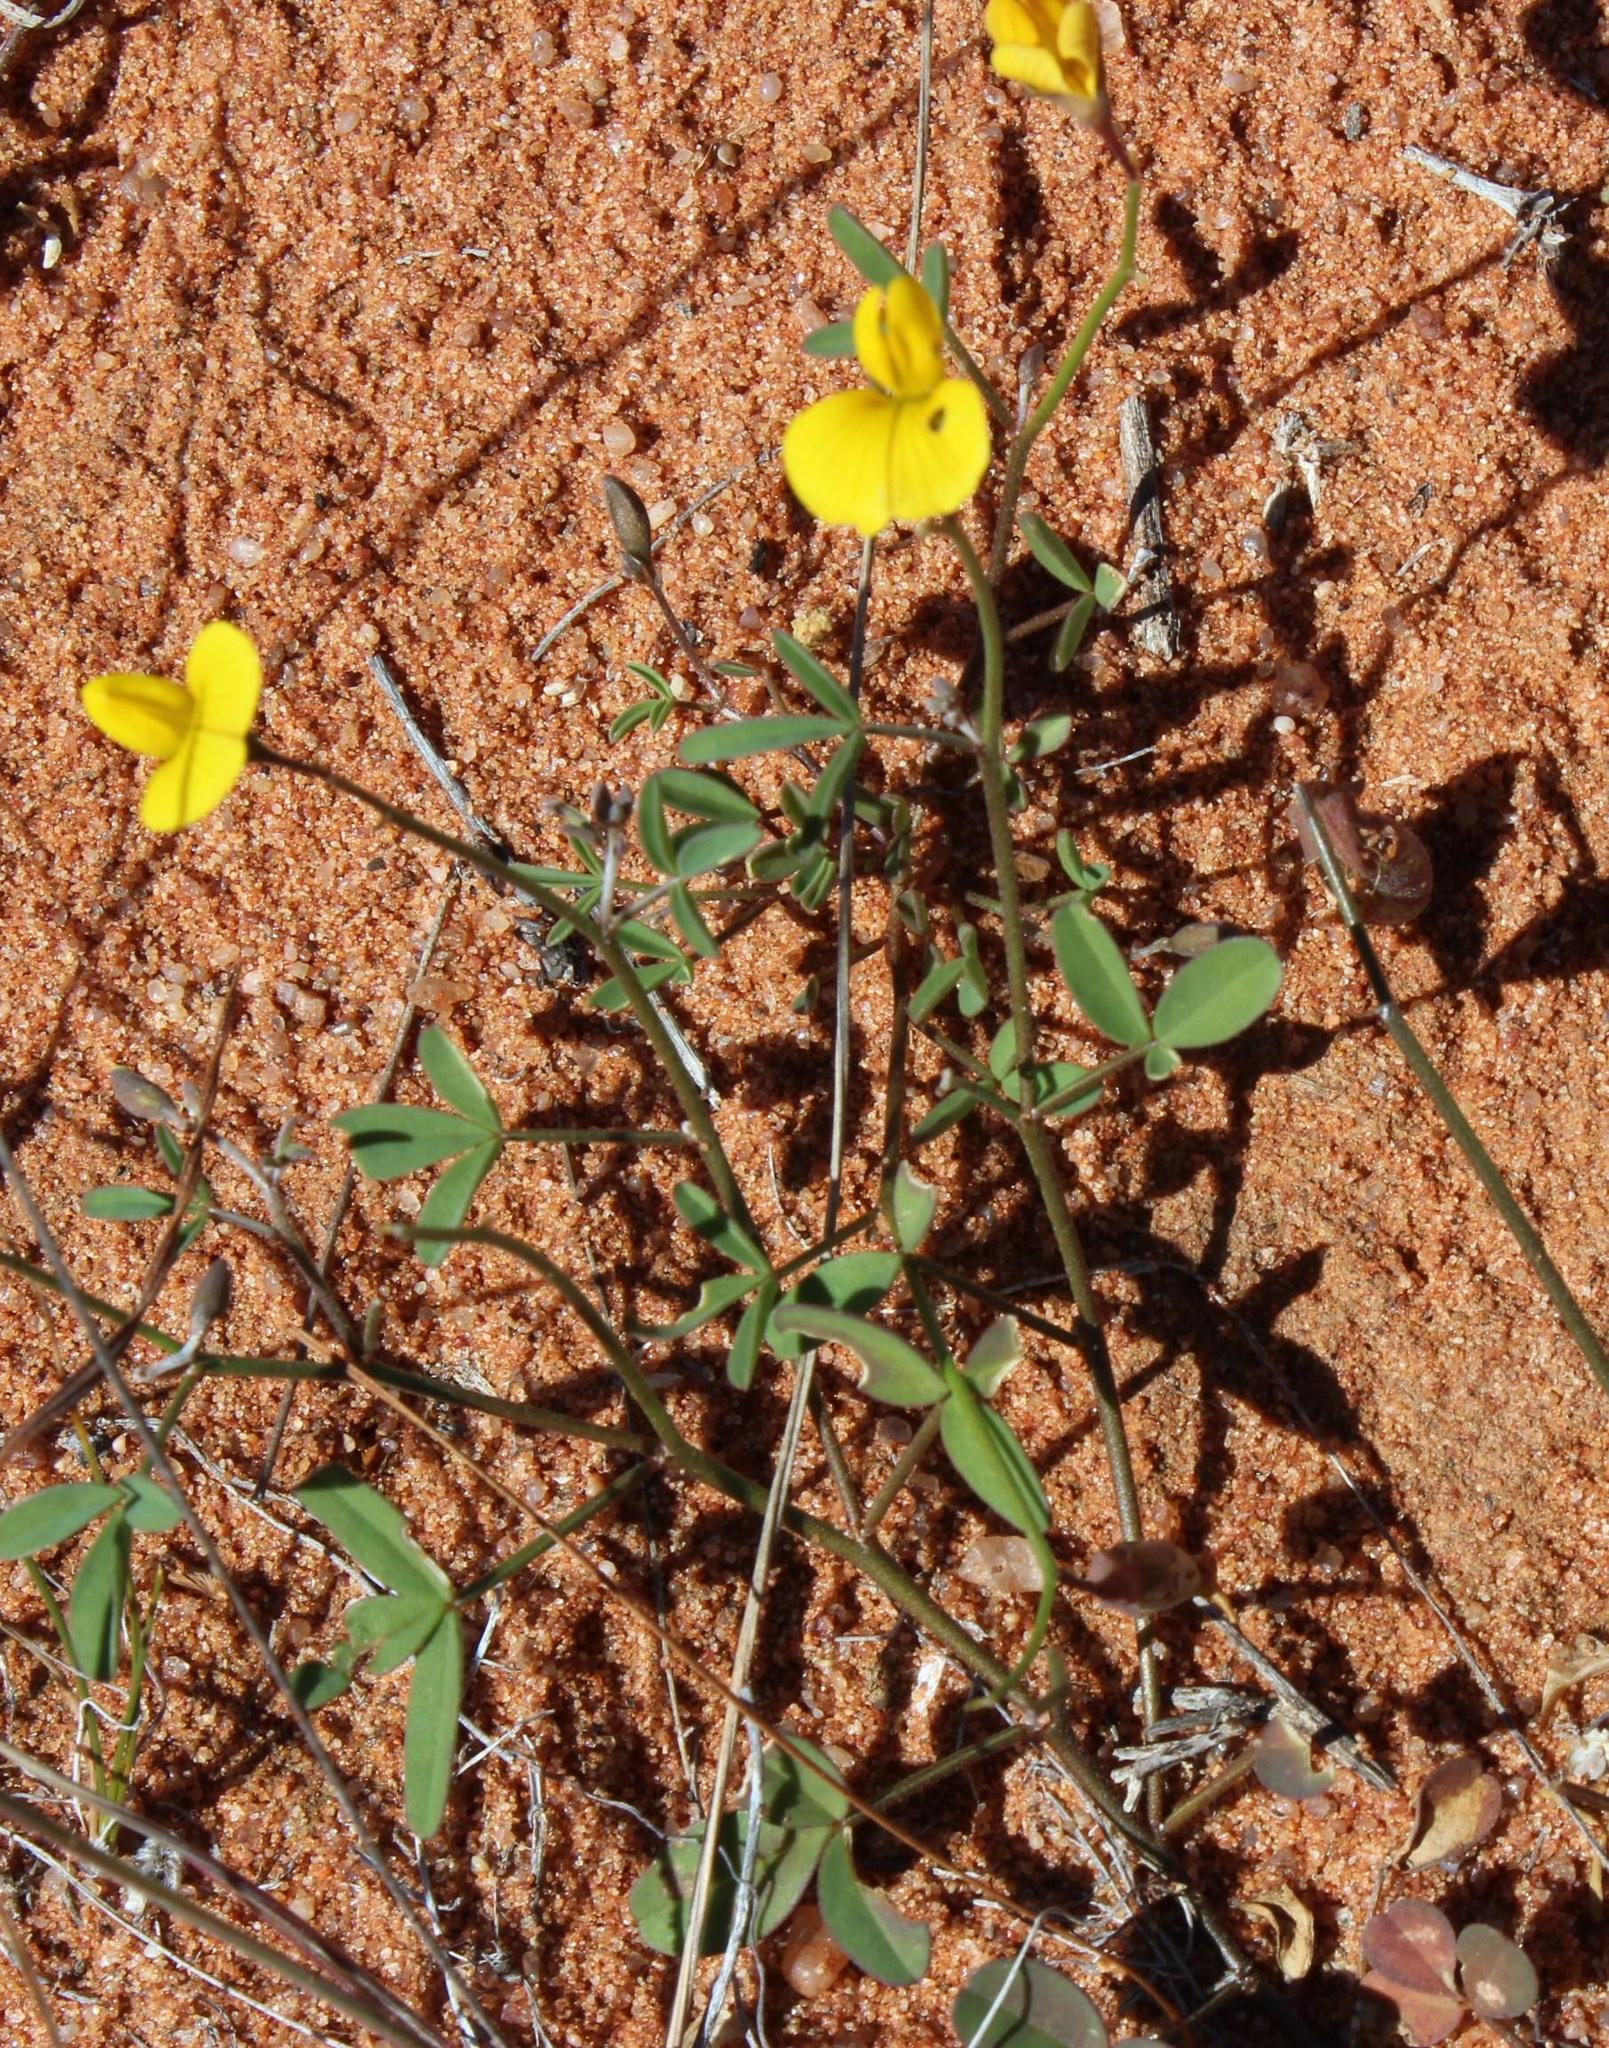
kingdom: Plantae
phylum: Tracheophyta
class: Magnoliopsida
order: Fabales
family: Fabaceae
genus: Crotalaria
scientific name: Crotalaria humilis
